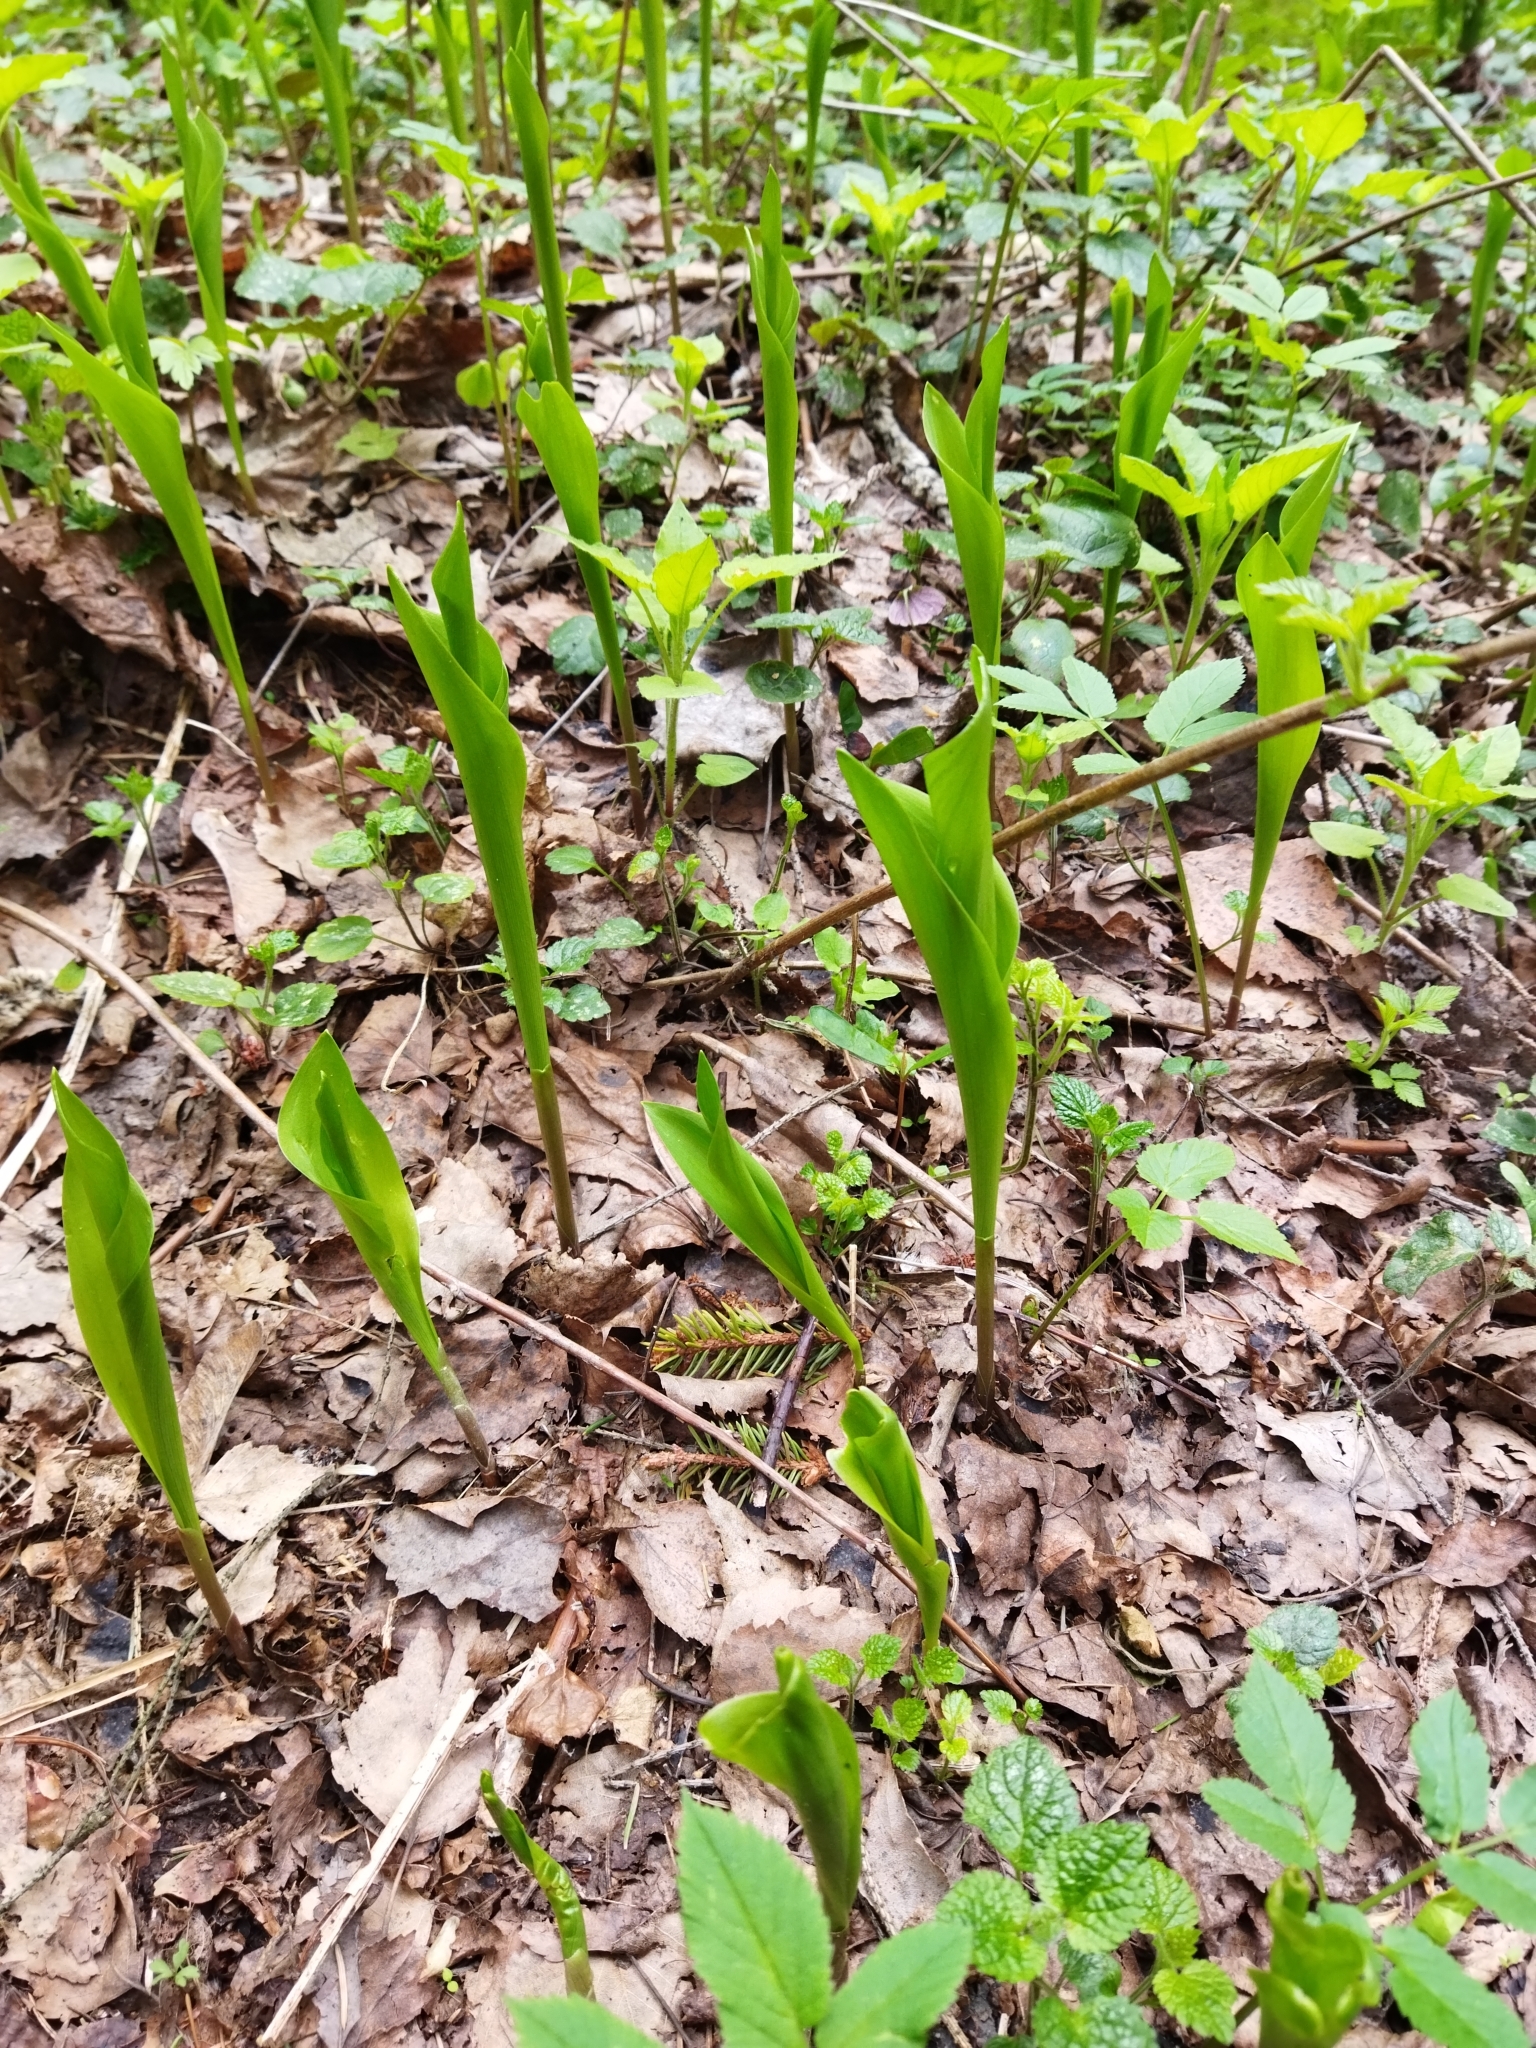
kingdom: Plantae
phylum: Tracheophyta
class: Liliopsida
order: Asparagales
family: Asparagaceae
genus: Convallaria
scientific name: Convallaria majalis
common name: Lily-of-the-valley
